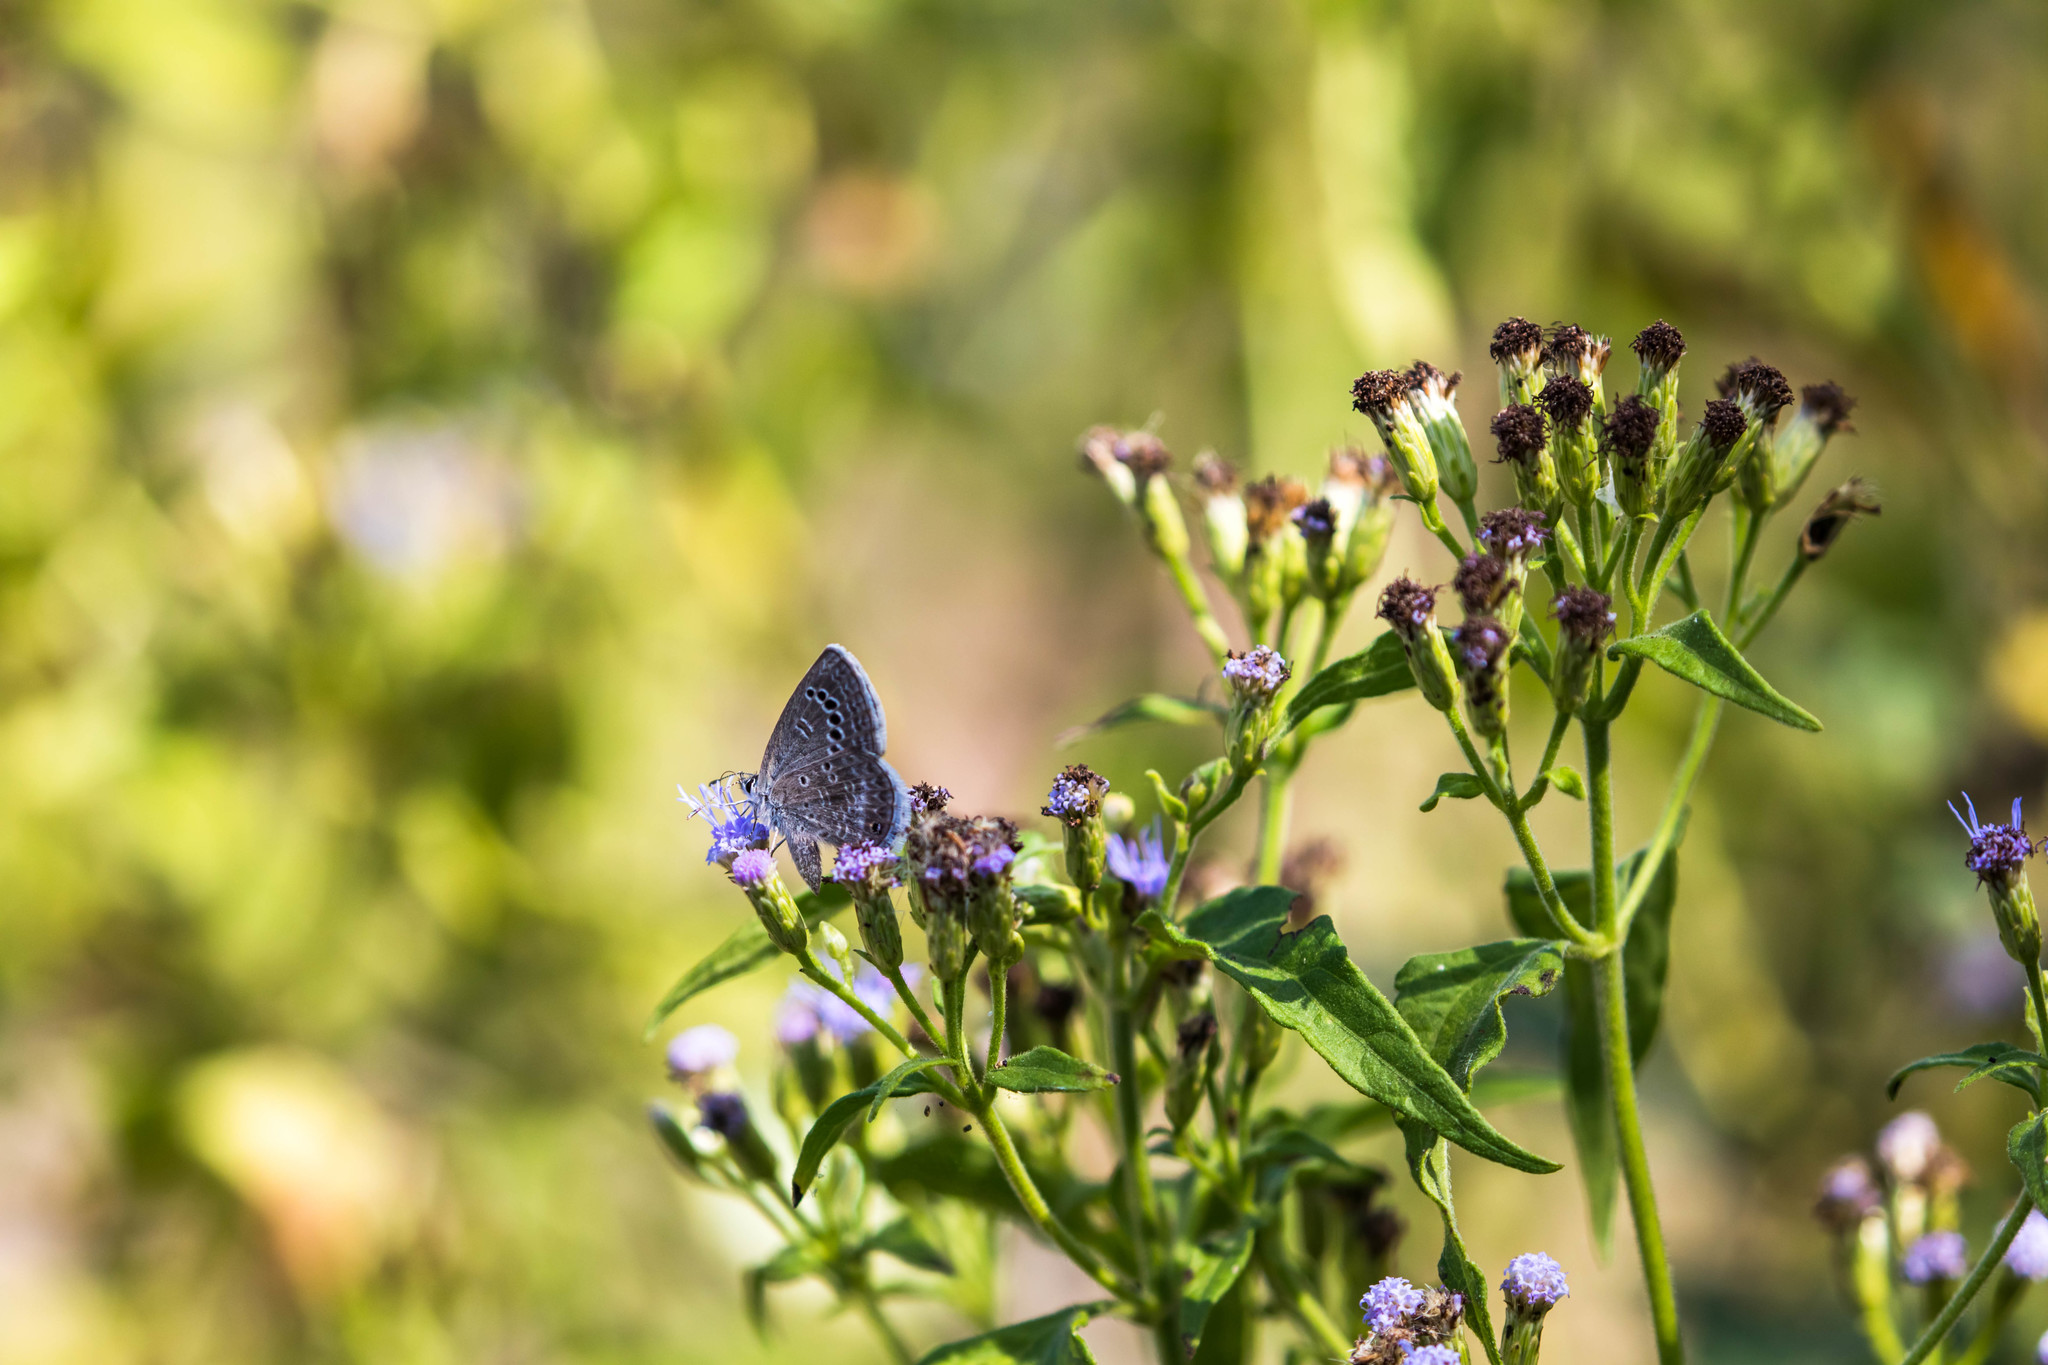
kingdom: Animalia
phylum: Arthropoda
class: Insecta
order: Lepidoptera
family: Lycaenidae
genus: Echinargus
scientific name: Echinargus isola
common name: Reakirt's blue
